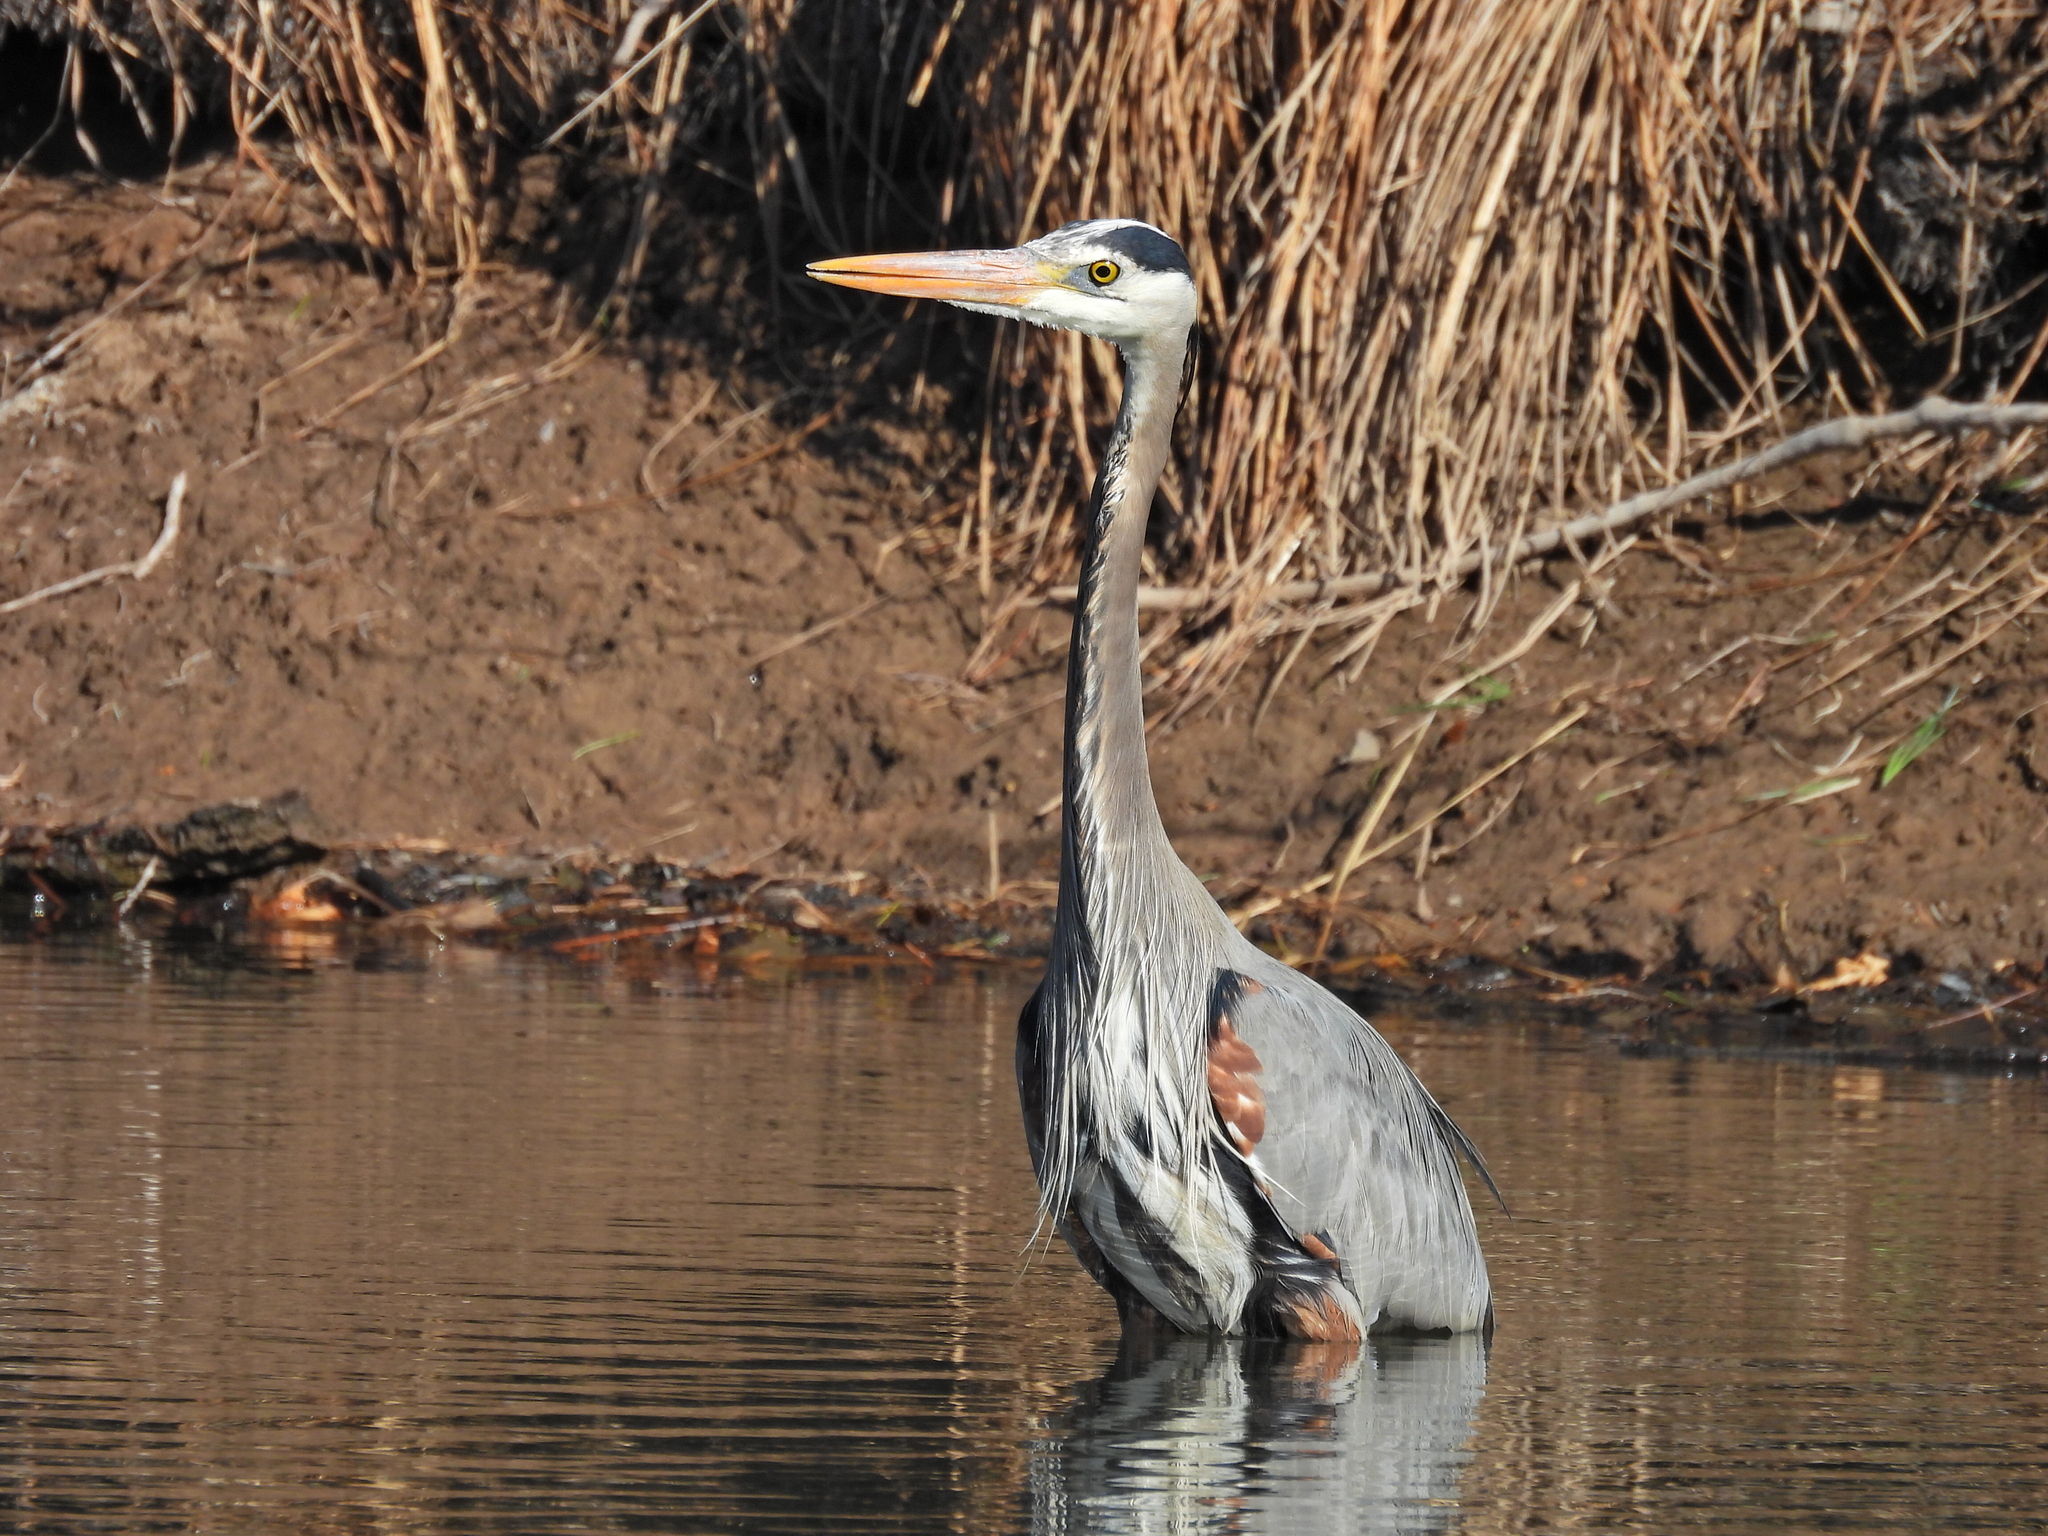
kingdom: Animalia
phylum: Chordata
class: Aves
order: Pelecaniformes
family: Ardeidae
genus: Ardea
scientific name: Ardea herodias
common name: Great blue heron
